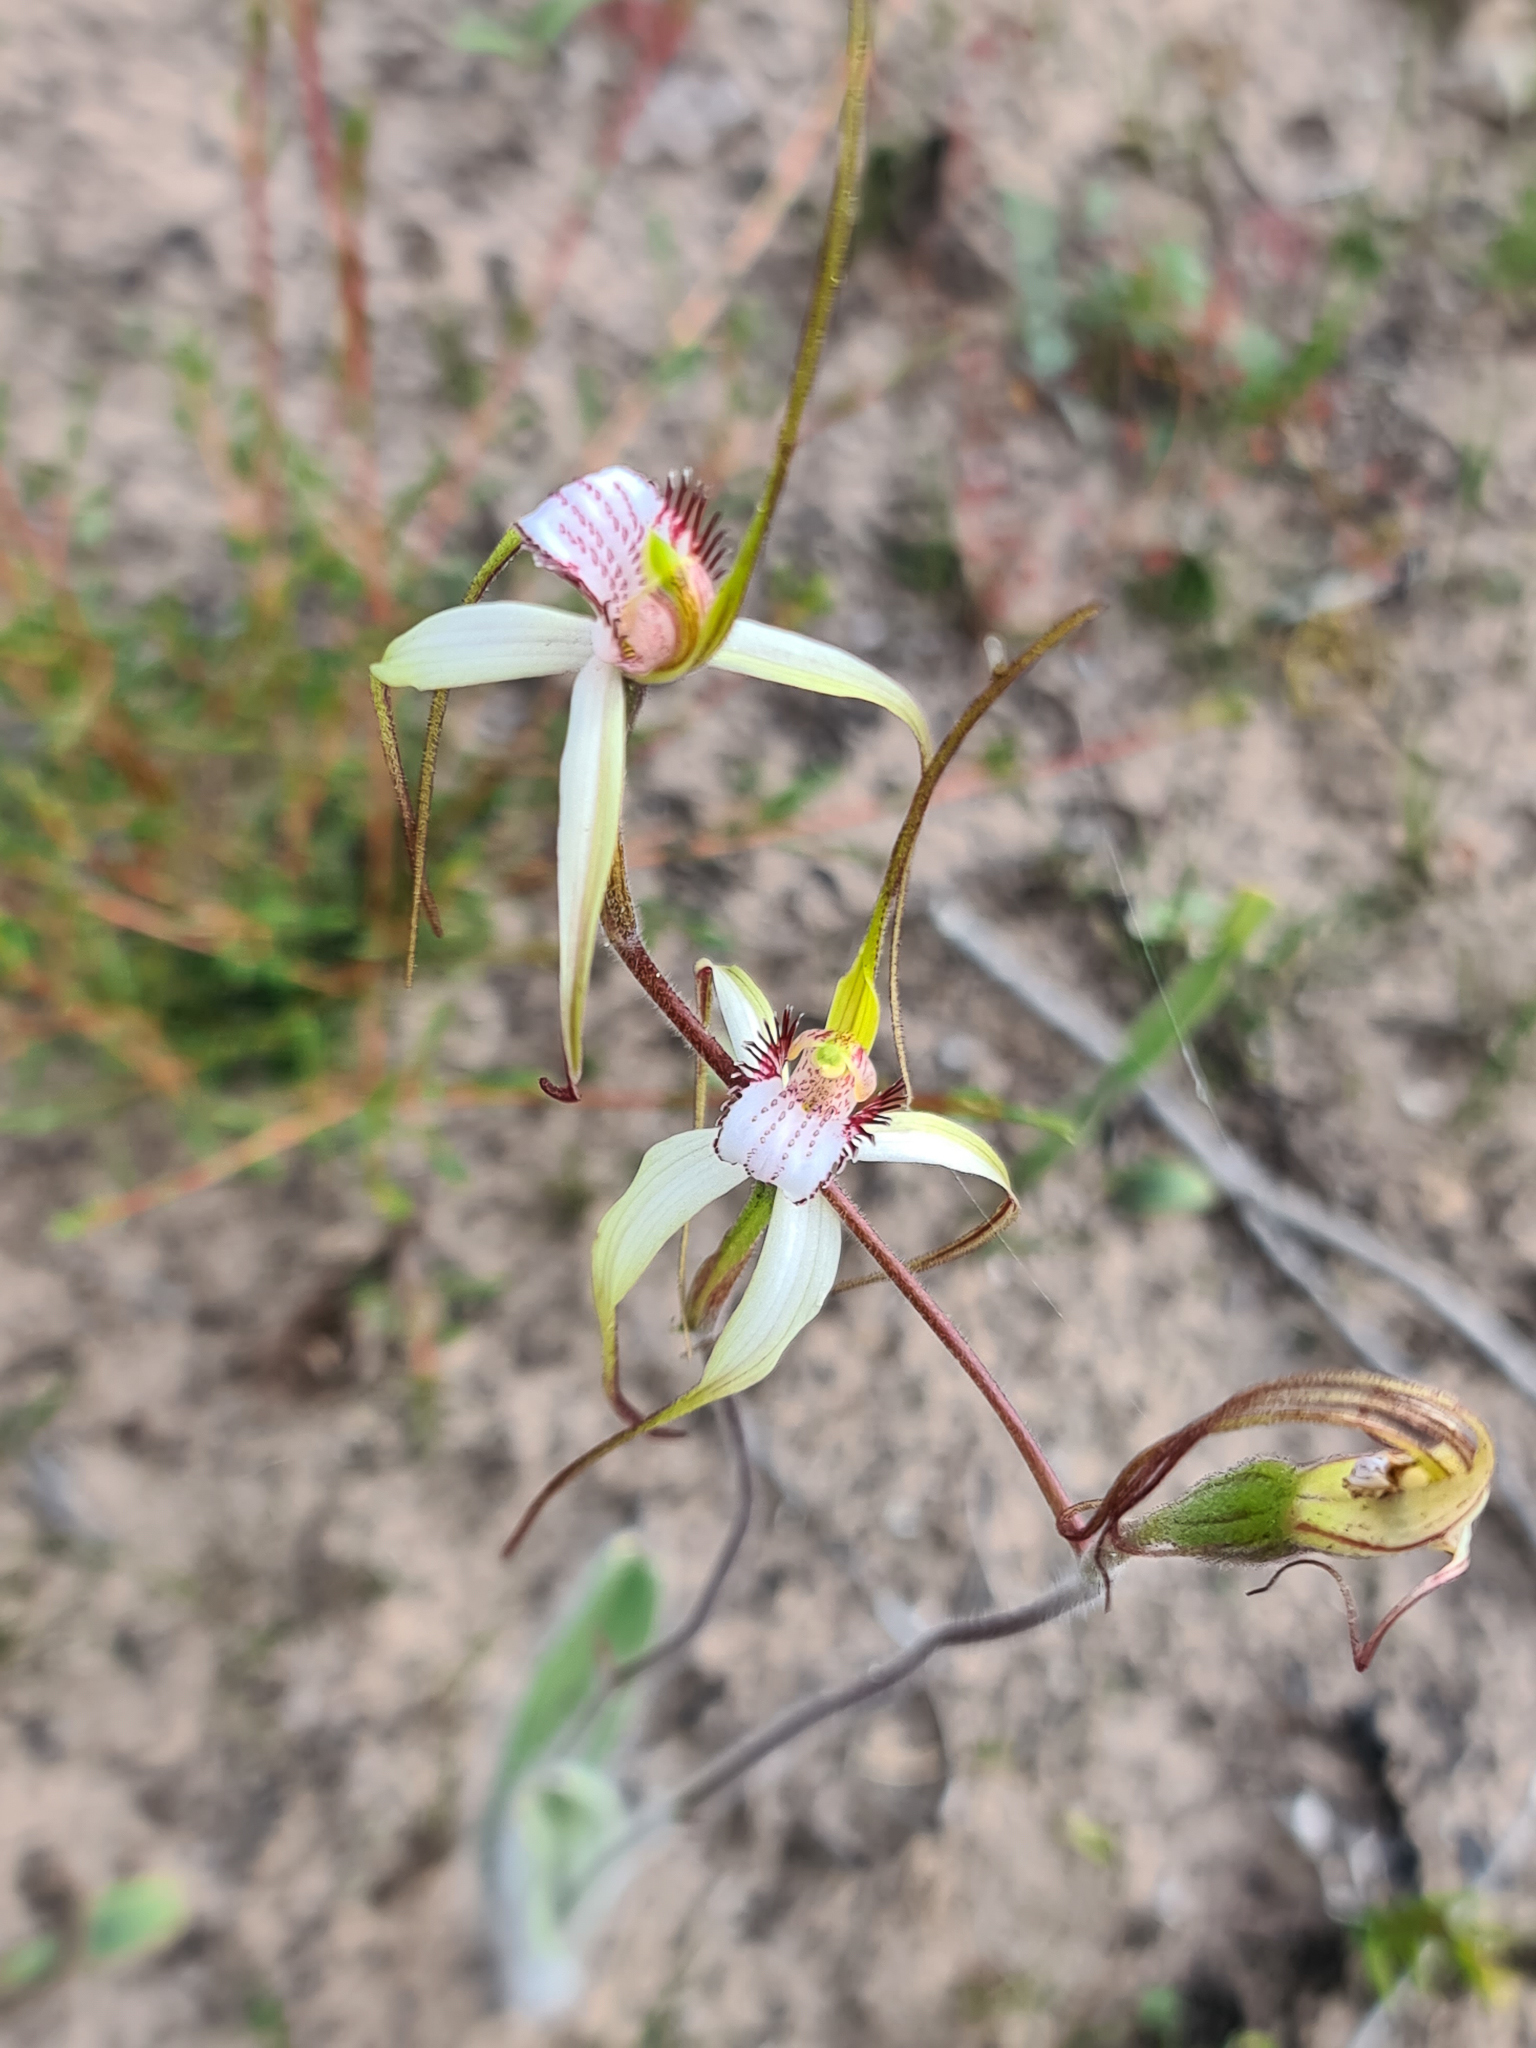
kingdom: Plantae
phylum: Tracheophyta
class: Liliopsida
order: Asparagales
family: Orchidaceae
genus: Caladenia
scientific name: Caladenia longicauda
